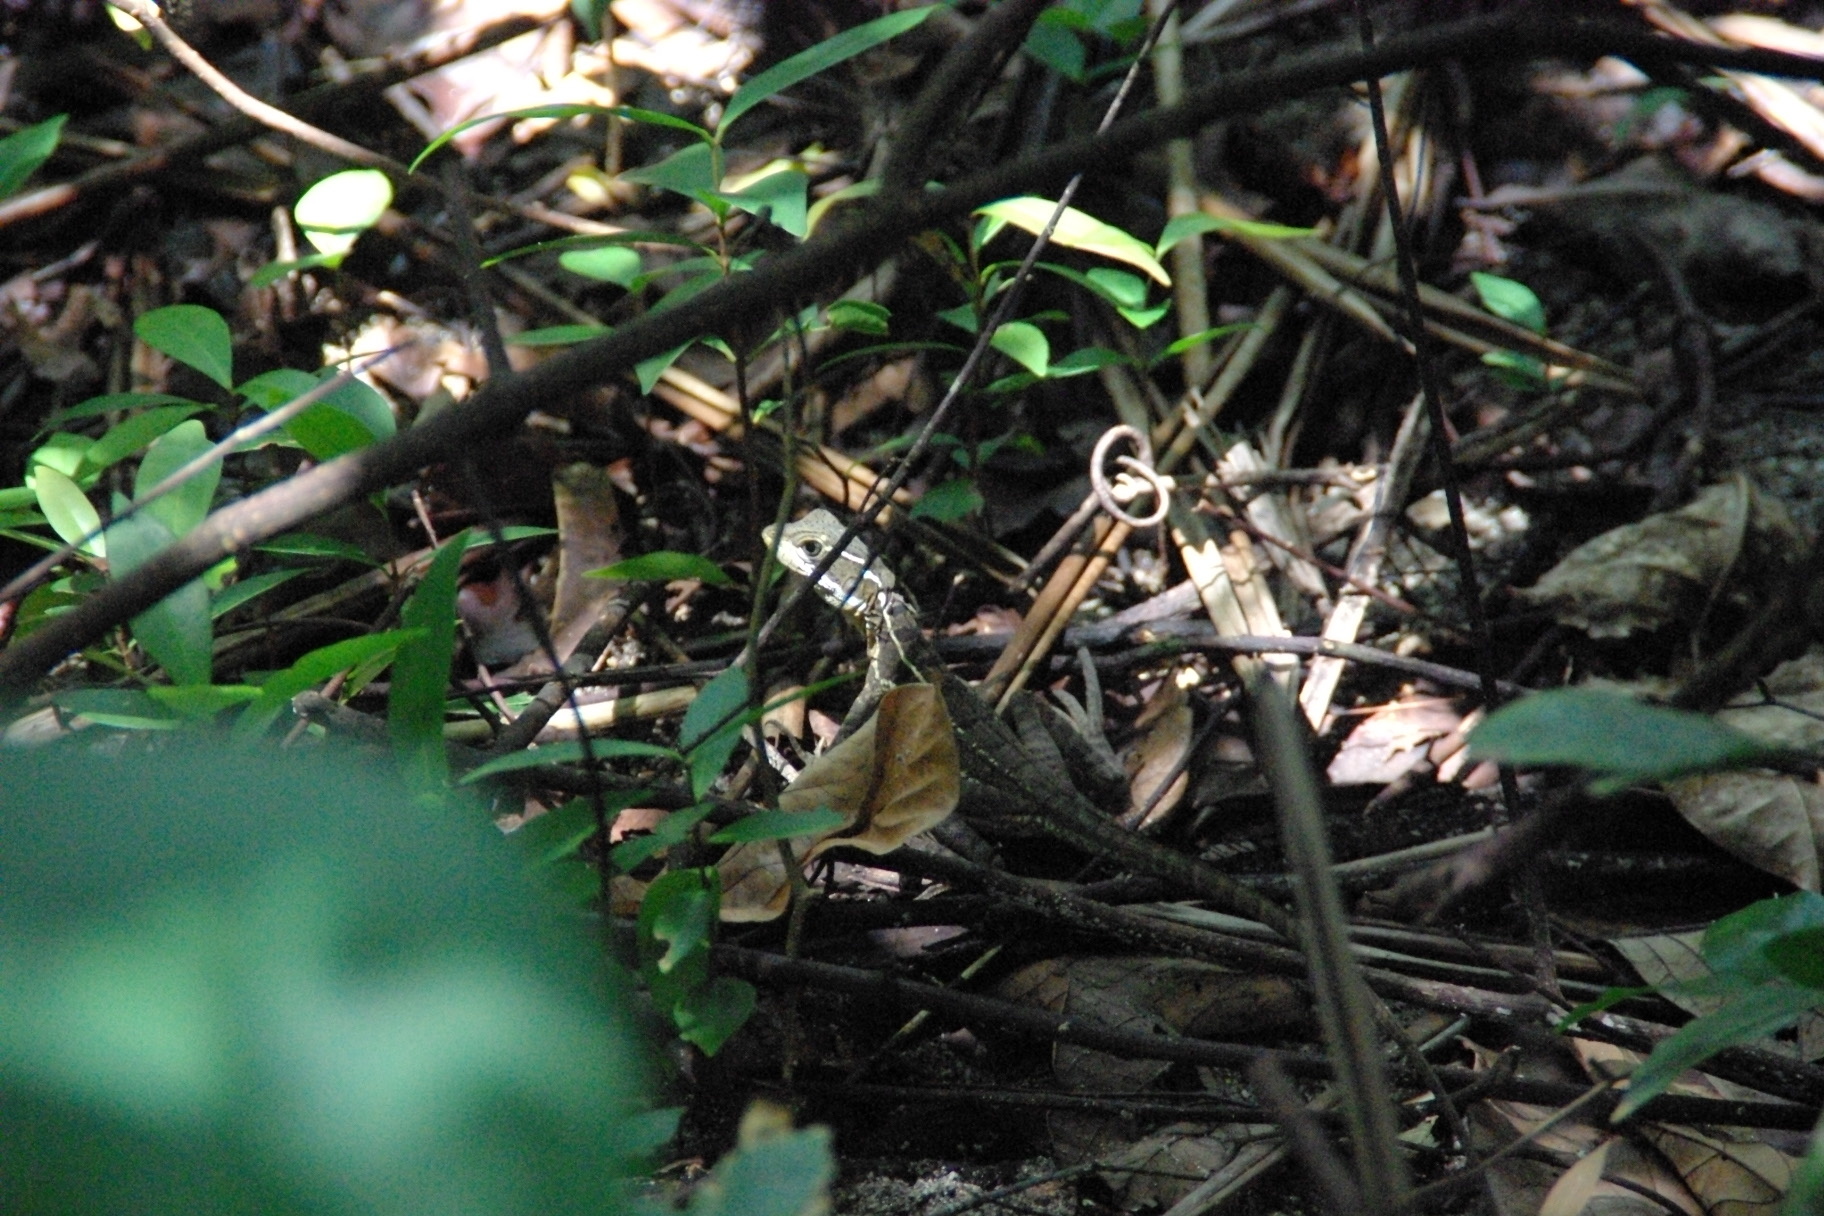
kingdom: Animalia
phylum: Chordata
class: Squamata
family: Corytophanidae
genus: Basiliscus
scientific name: Basiliscus basiliscus
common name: Common basilisk
